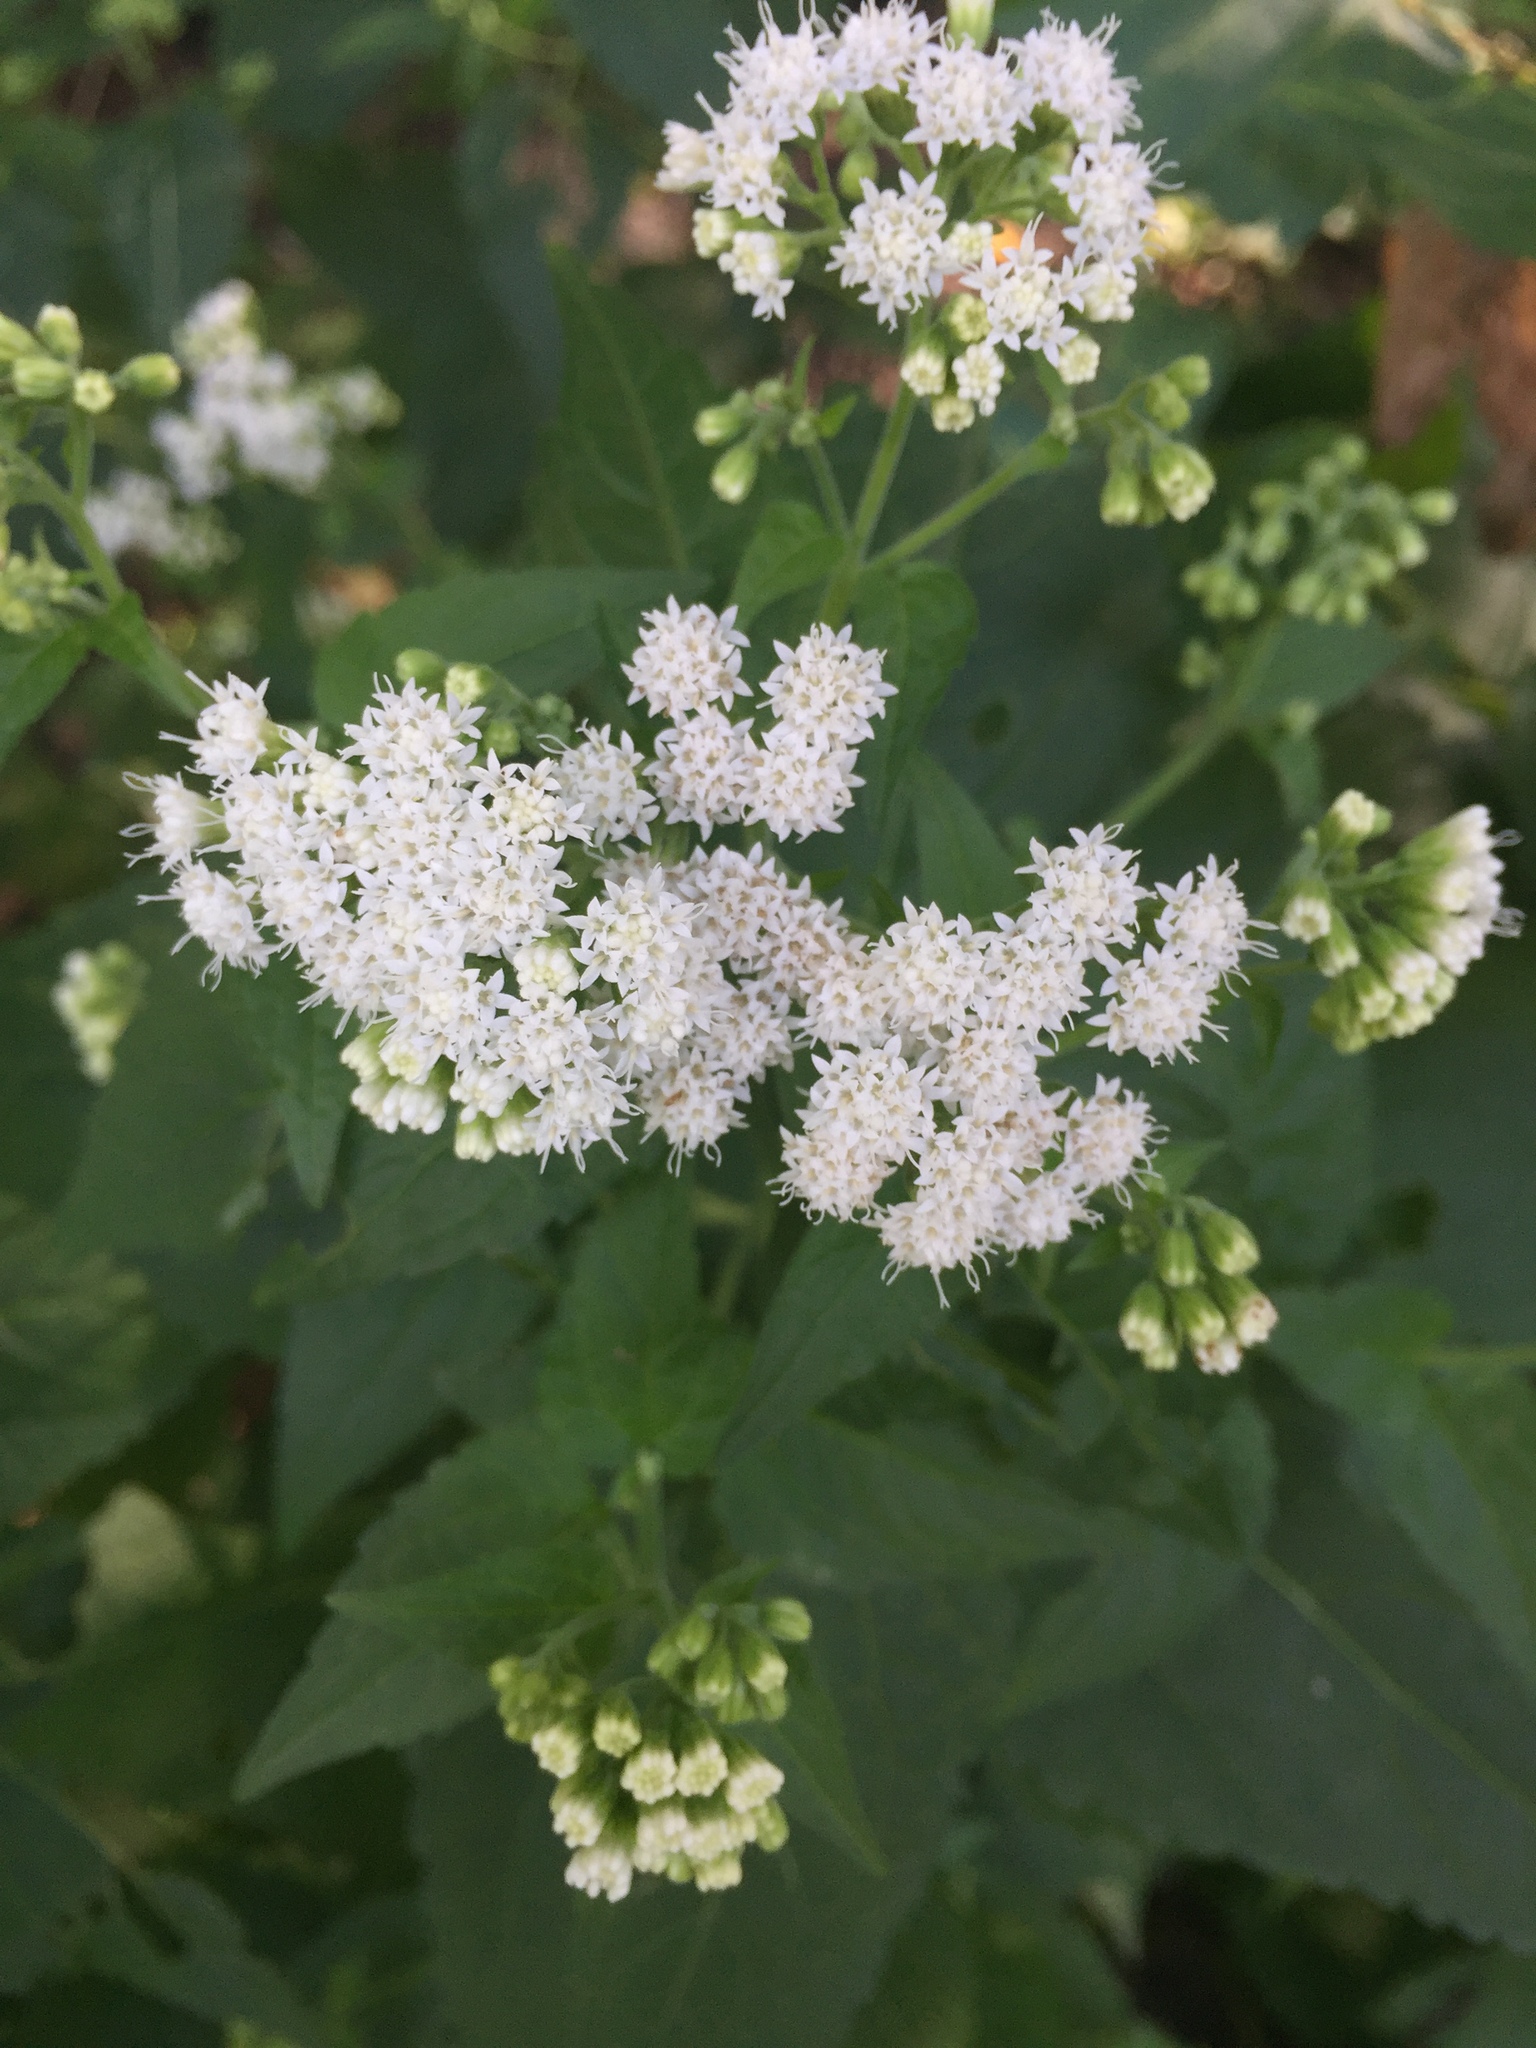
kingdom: Plantae
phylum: Tracheophyta
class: Magnoliopsida
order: Asterales
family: Asteraceae
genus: Ageratina
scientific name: Ageratina altissima
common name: White snakeroot
